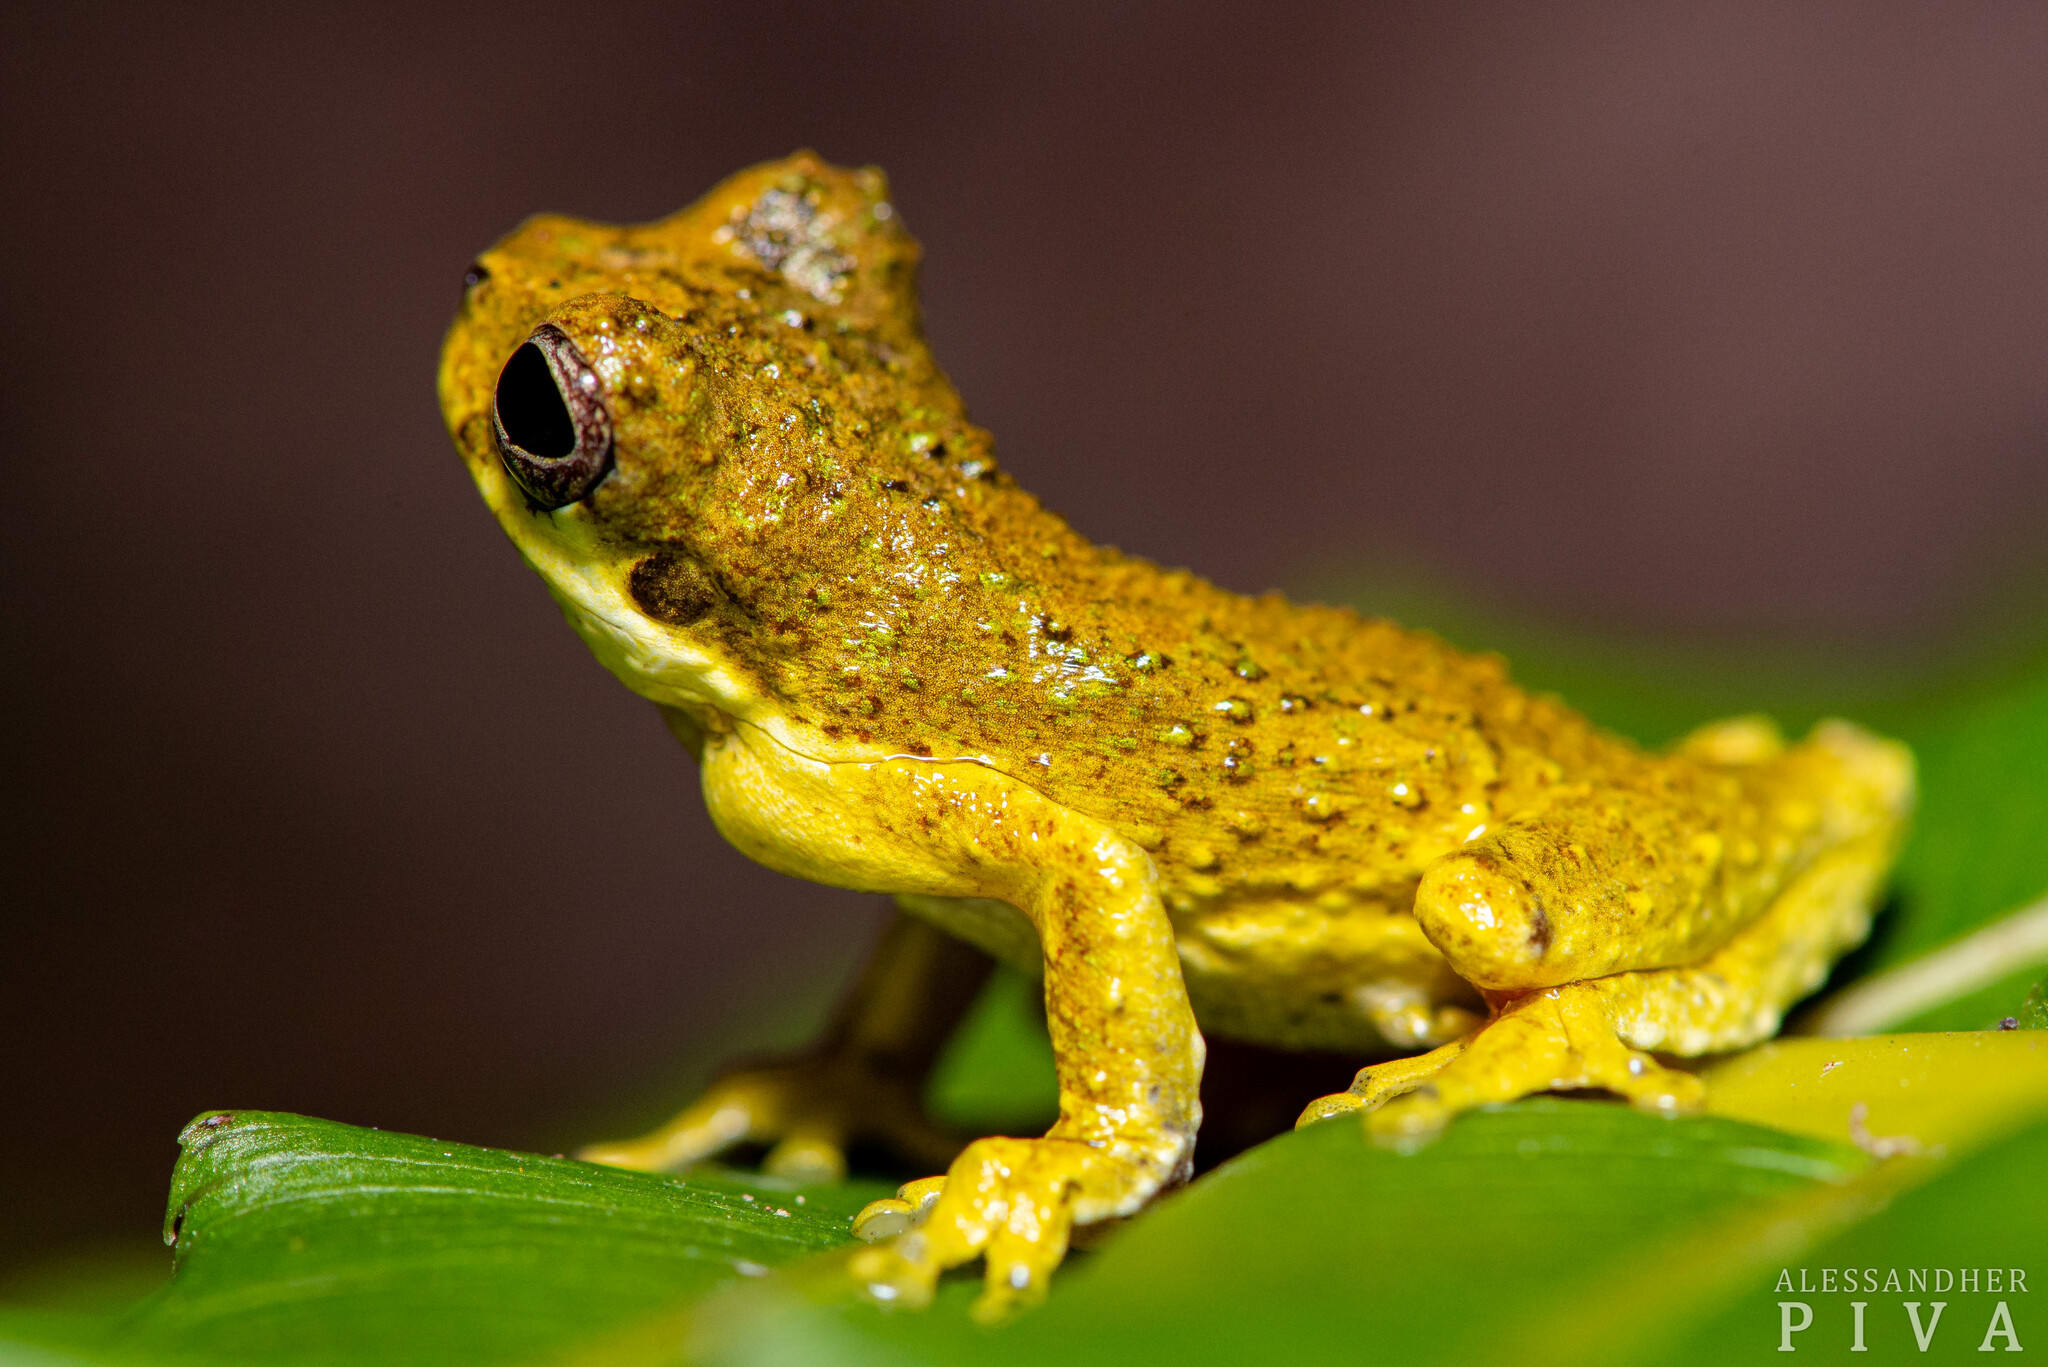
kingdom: Animalia
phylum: Chordata
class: Amphibia
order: Anura
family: Hylidae
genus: Dendropsophus
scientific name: Dendropsophus microps
